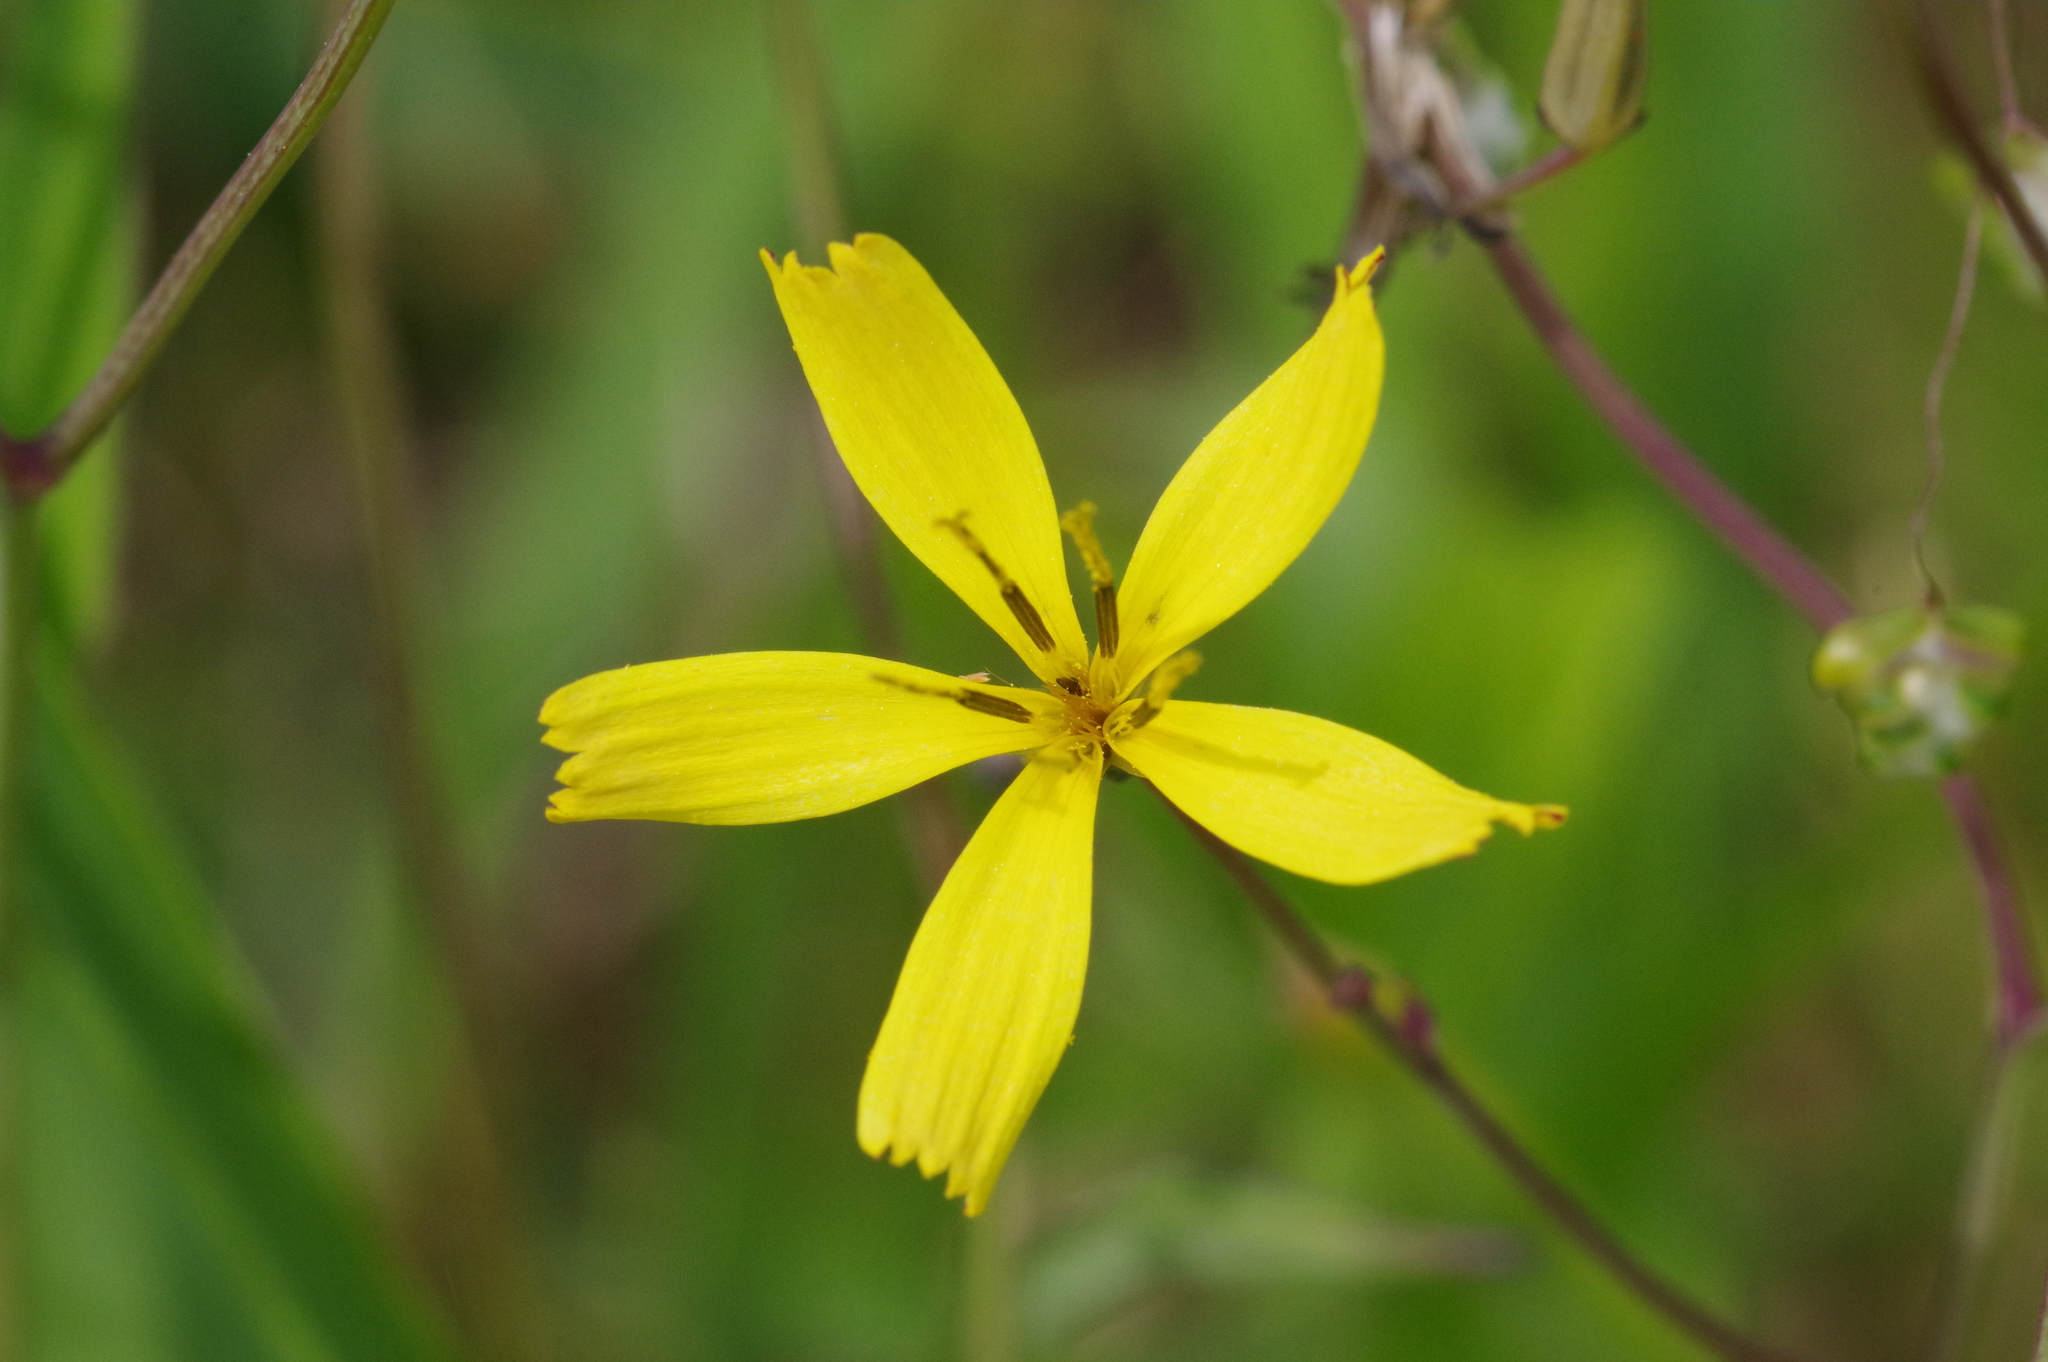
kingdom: Plantae
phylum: Tracheophyta
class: Magnoliopsida
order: Asterales
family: Asteraceae
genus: Ixeridium
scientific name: Ixeridium dentatum
